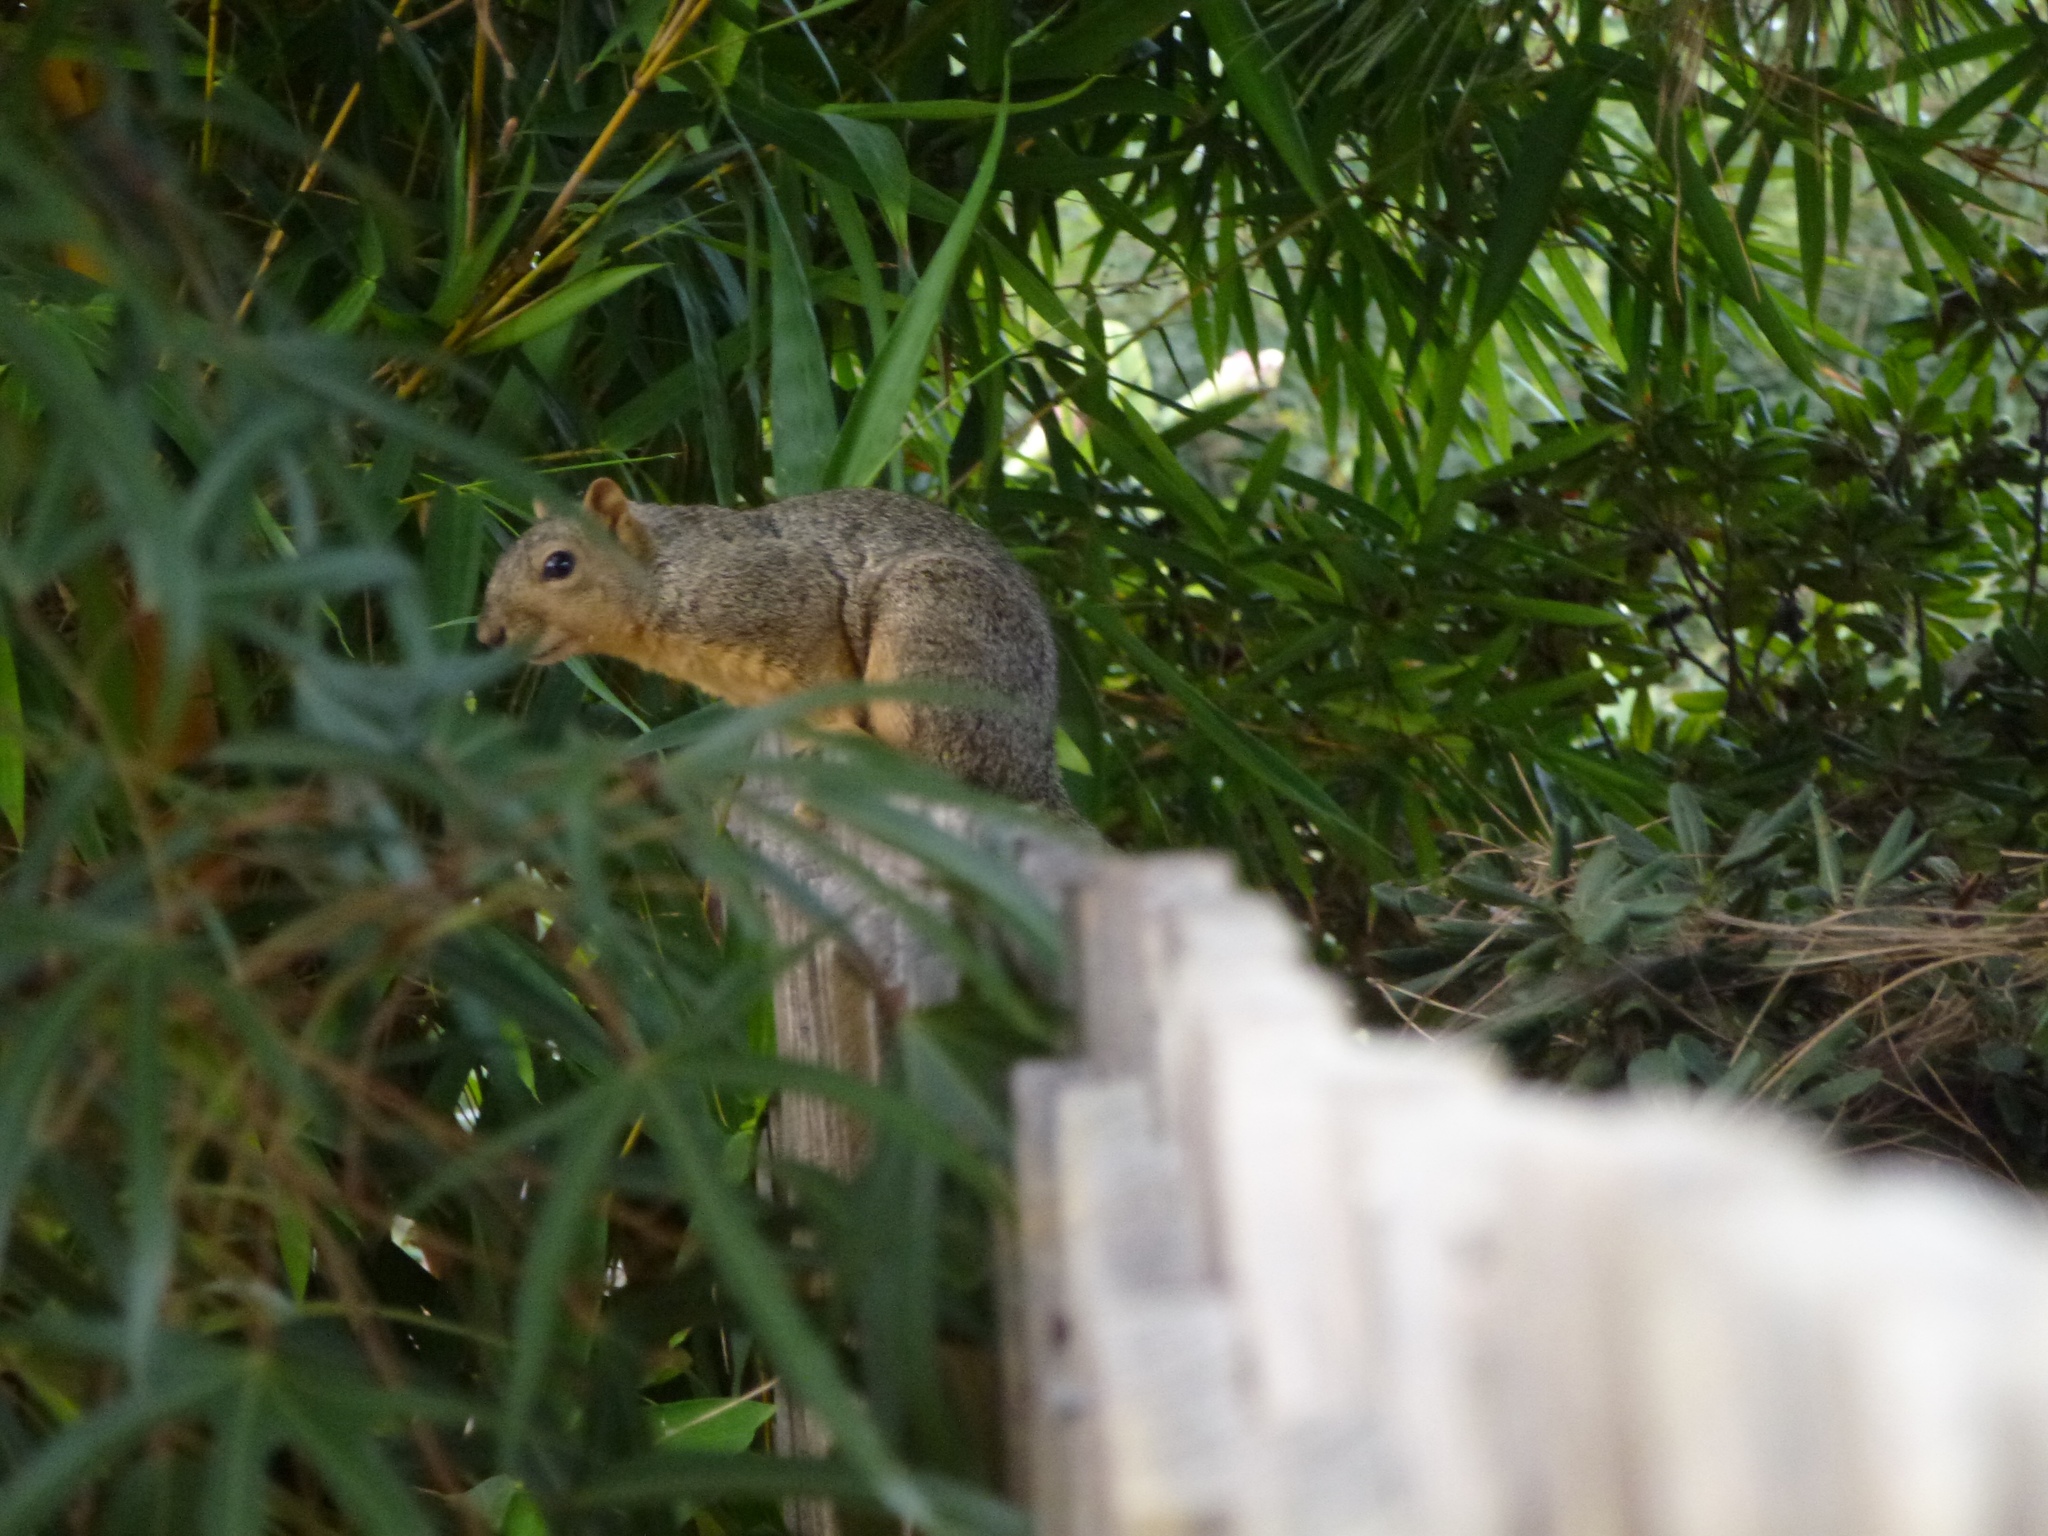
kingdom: Animalia
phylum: Chordata
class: Mammalia
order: Rodentia
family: Sciuridae
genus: Sciurus
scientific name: Sciurus niger
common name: Fox squirrel
